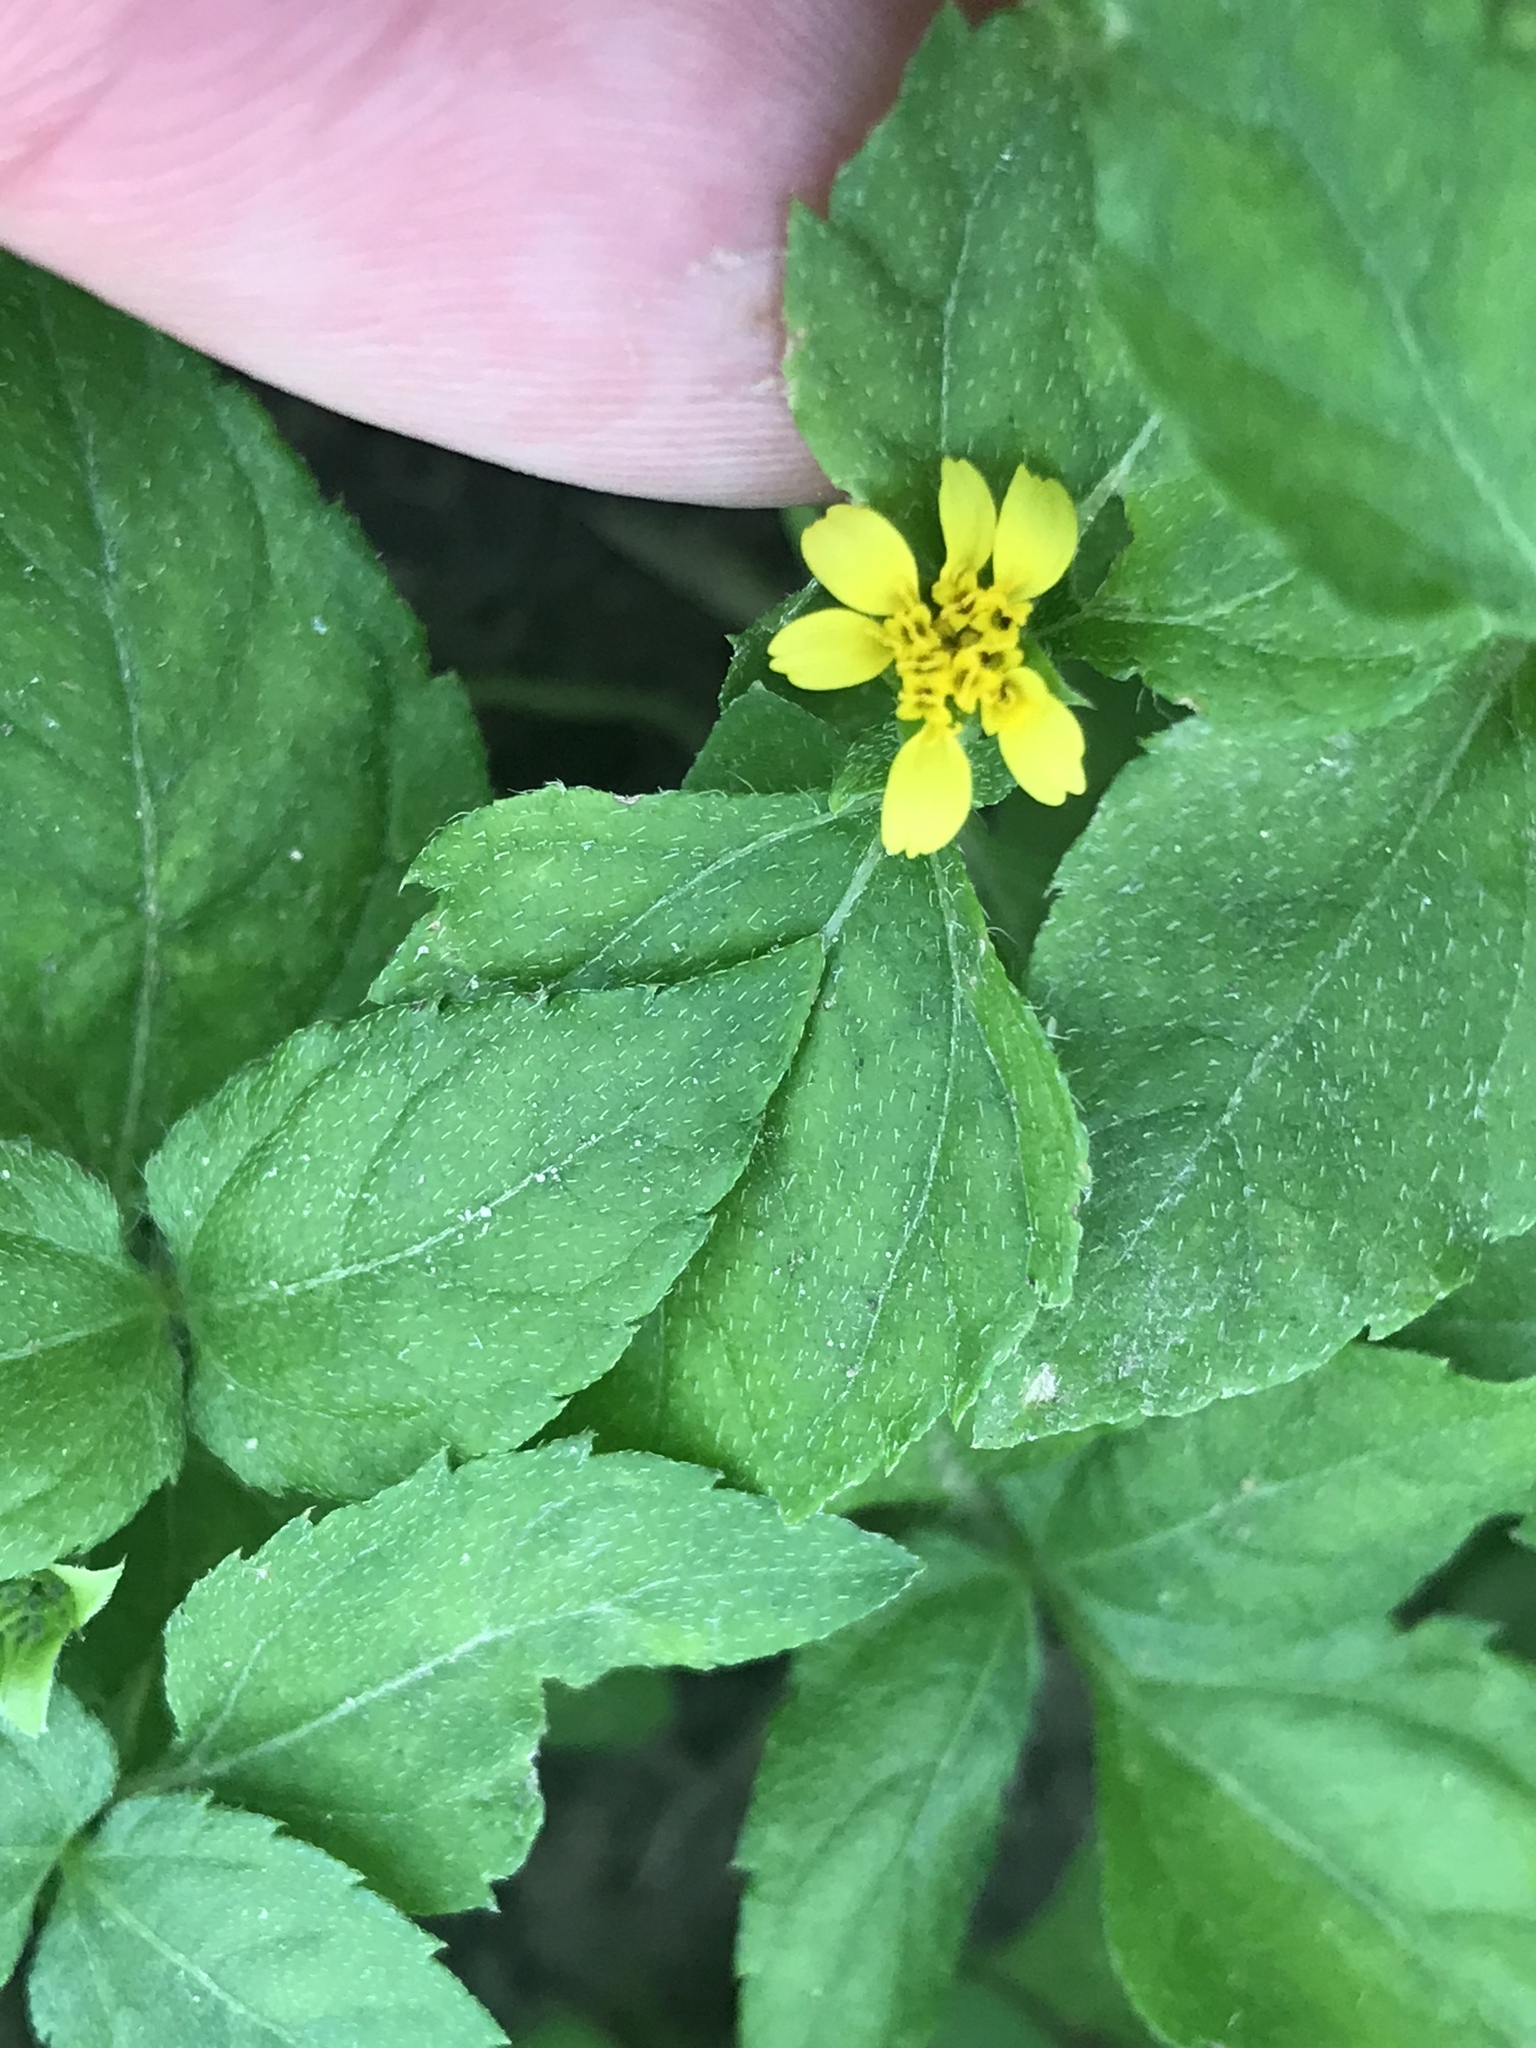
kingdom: Plantae
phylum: Tracheophyta
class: Magnoliopsida
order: Asterales
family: Asteraceae
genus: Calyptocarpus
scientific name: Calyptocarpus vialis
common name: Straggler daisy
